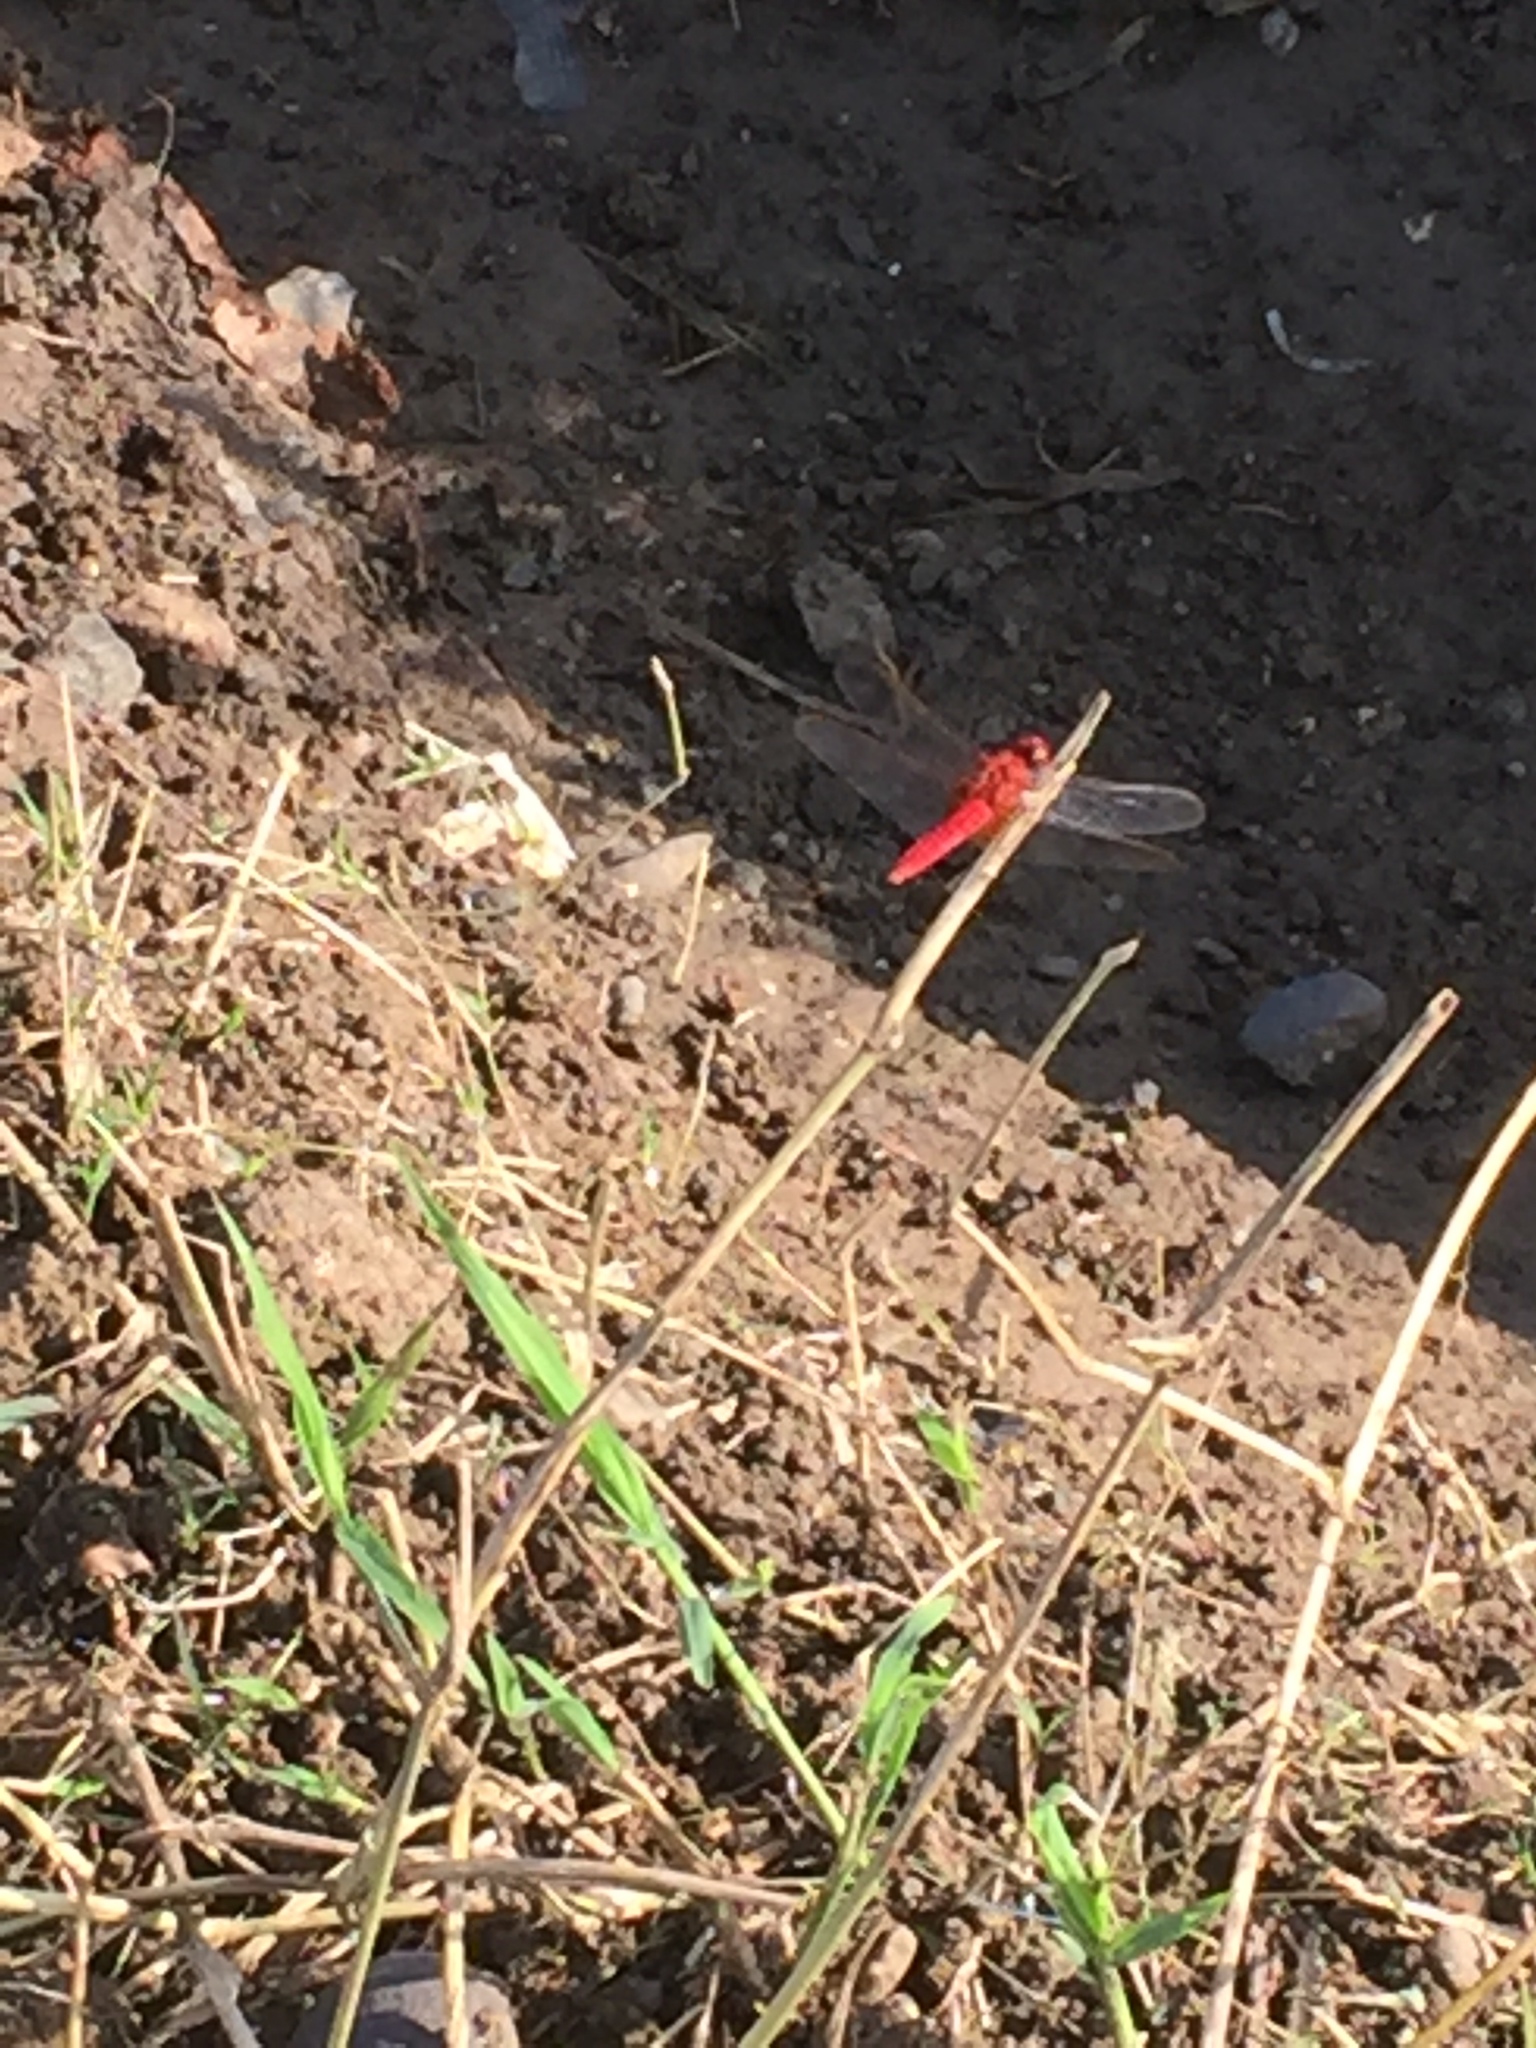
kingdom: Animalia
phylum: Arthropoda
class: Insecta
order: Odonata
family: Libellulidae
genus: Crocothemis
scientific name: Crocothemis servilia
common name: Scarlet skimmer
